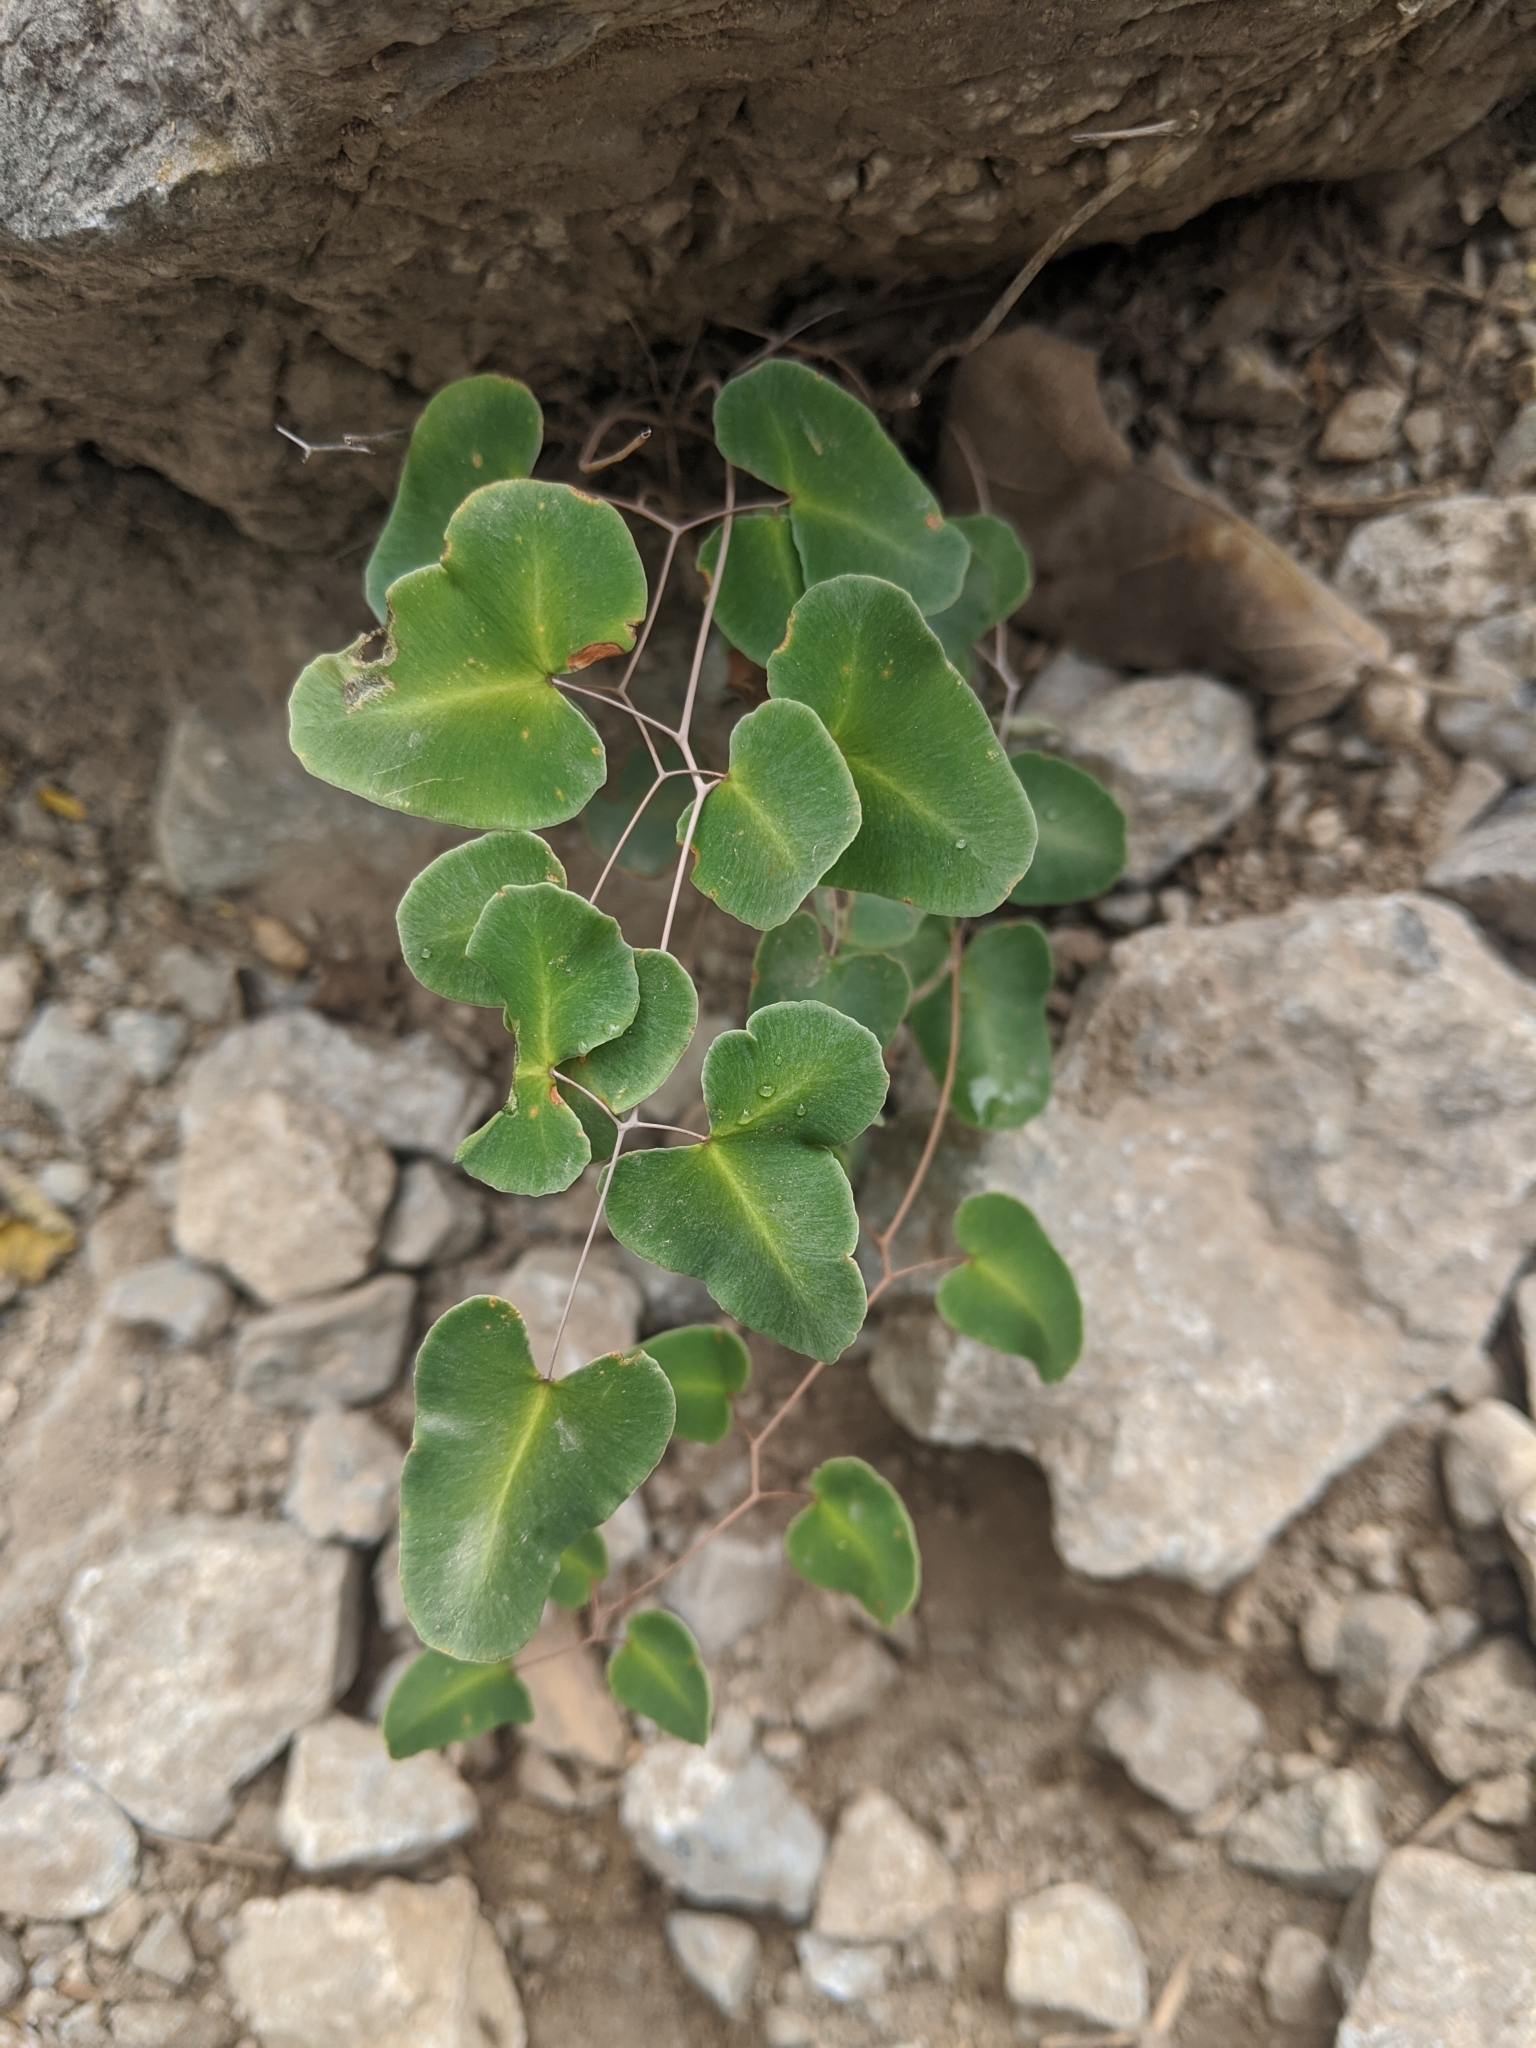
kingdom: Plantae
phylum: Tracheophyta
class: Polypodiopsida
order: Polypodiales
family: Pteridaceae
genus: Pellaea
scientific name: Pellaea ovata
